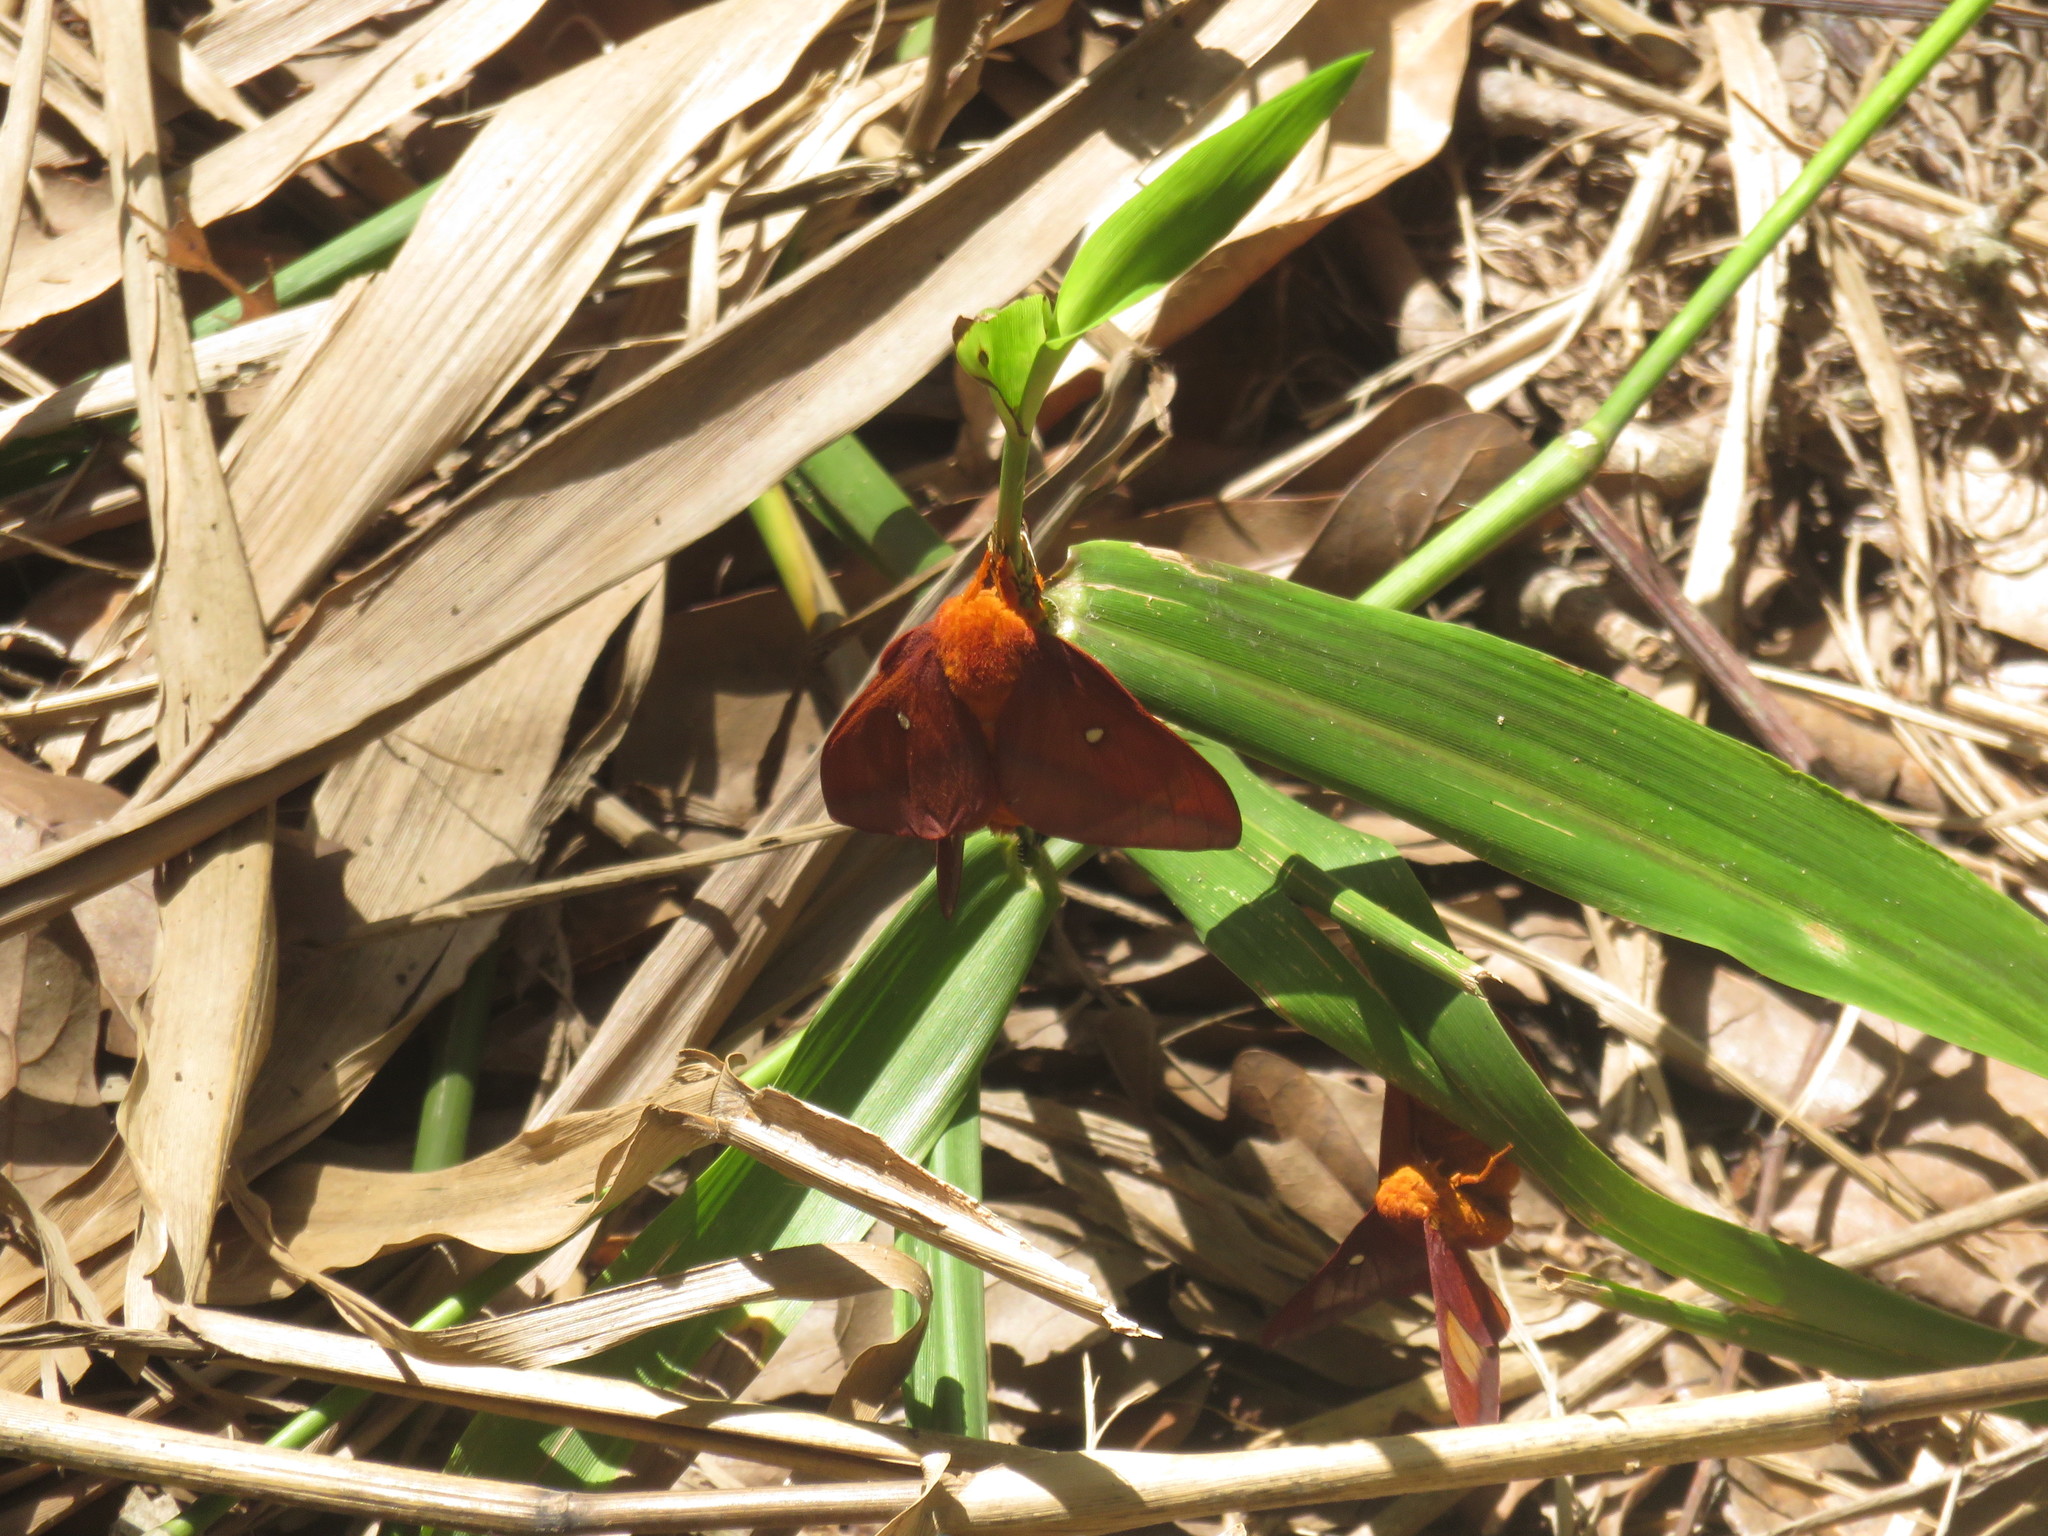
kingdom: Animalia
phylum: Arthropoda
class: Insecta
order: Lepidoptera
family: Saturniidae
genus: Anisota
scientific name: Anisota virginiensis
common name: Pink striped oakworm moth
